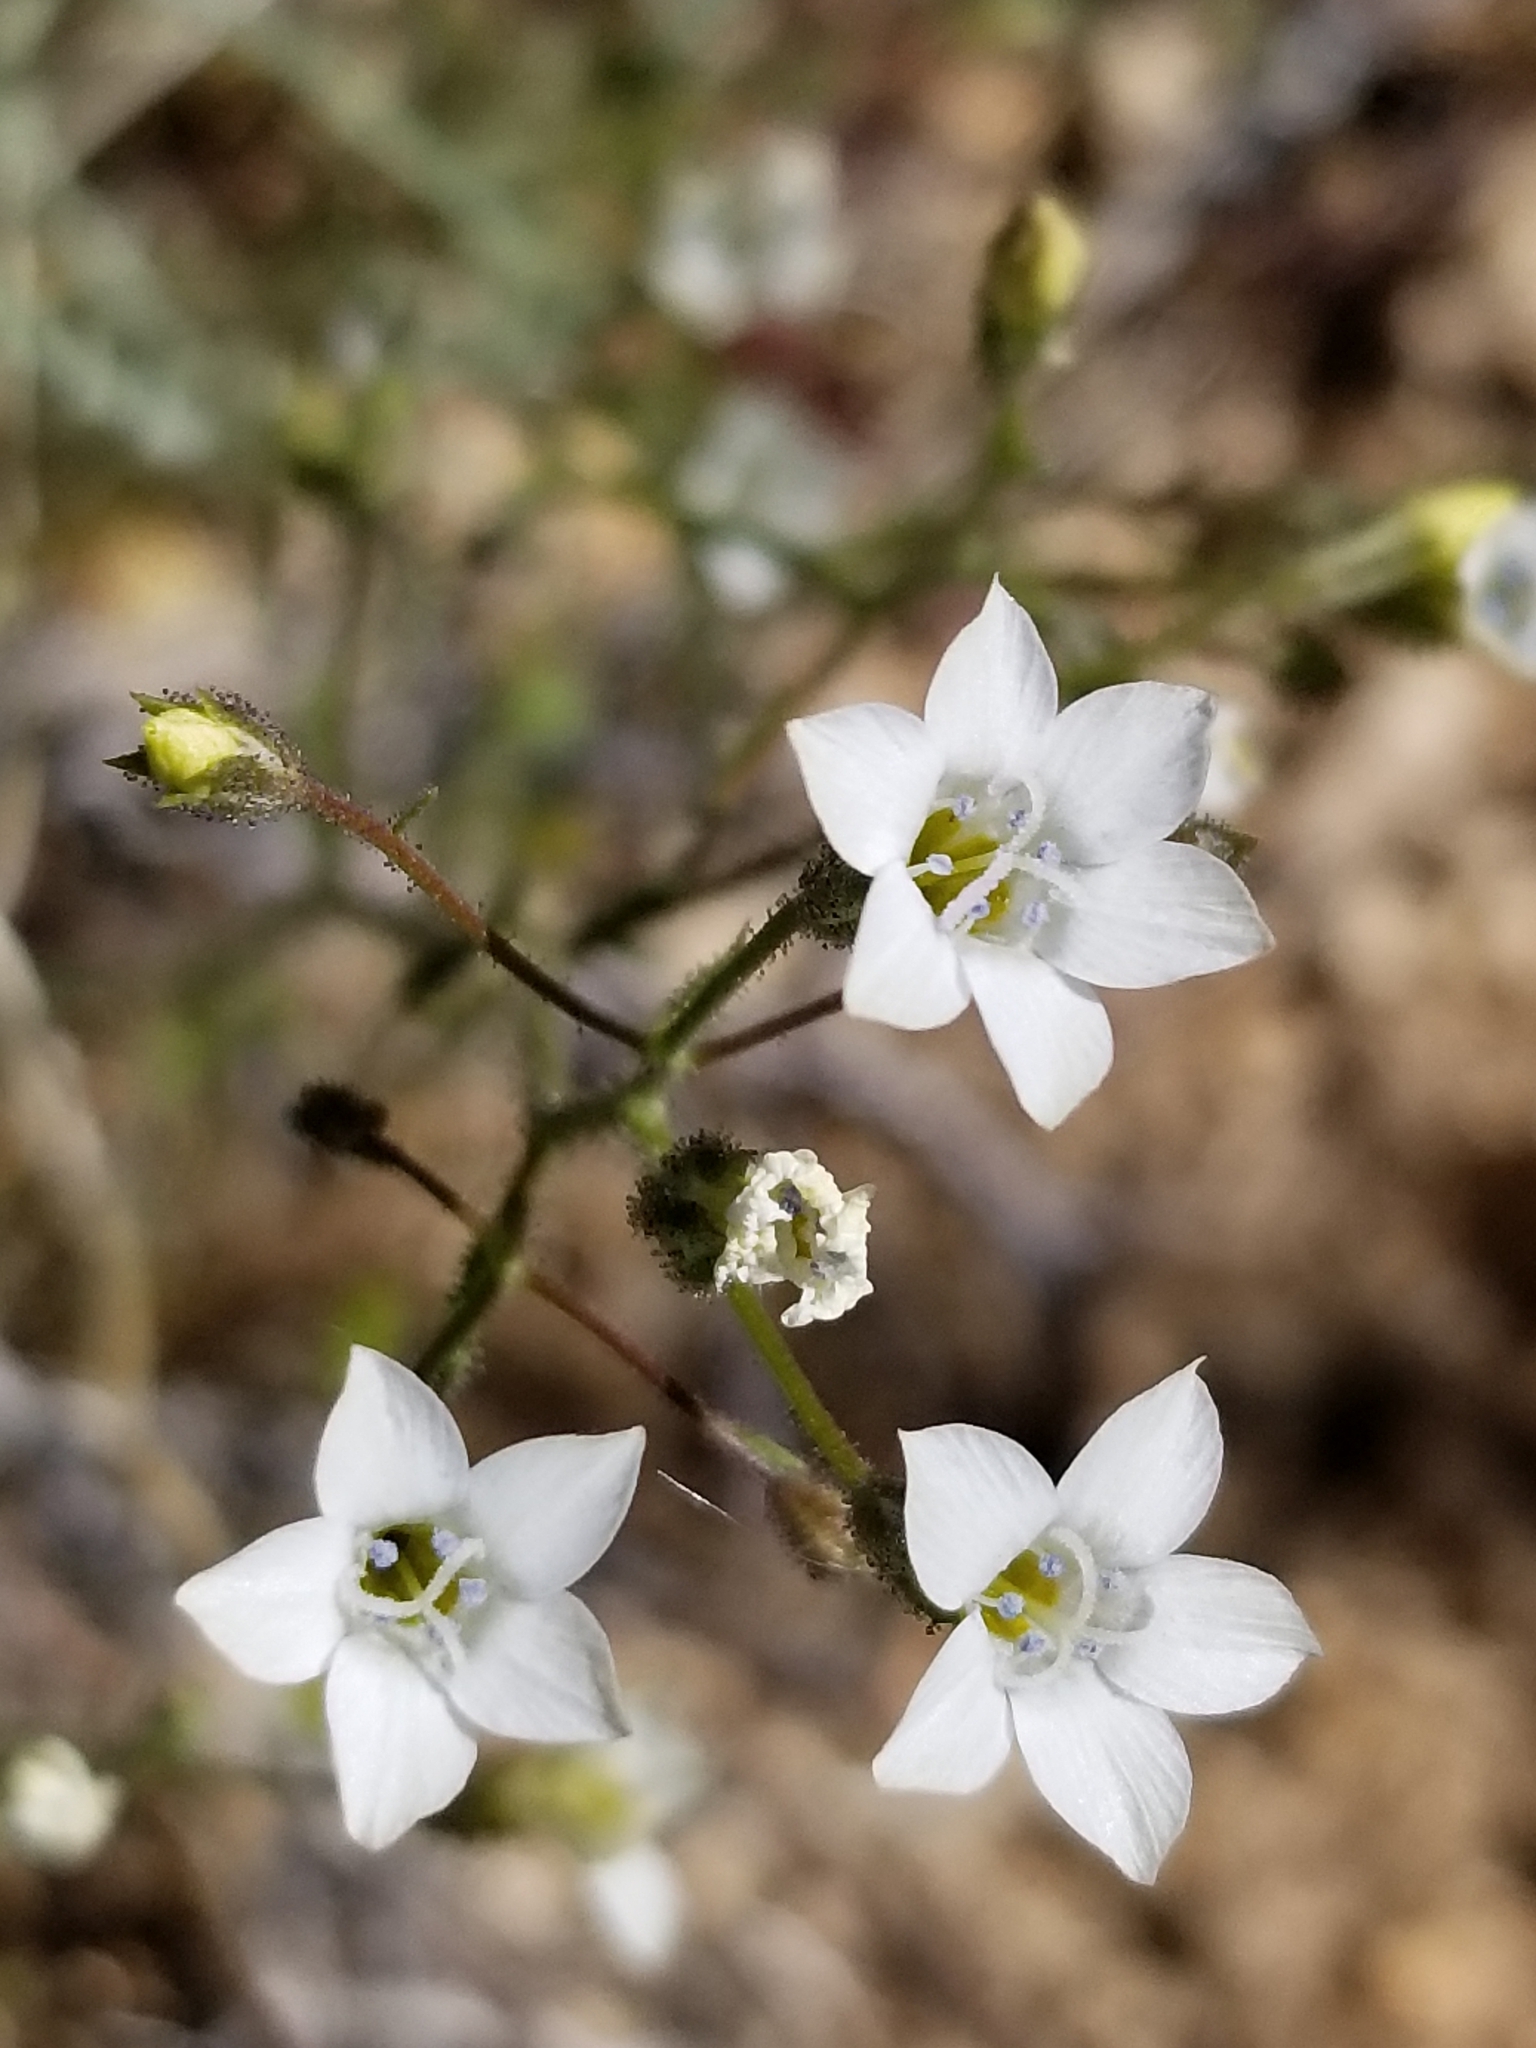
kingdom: Plantae
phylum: Tracheophyta
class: Magnoliopsida
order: Ericales
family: Polemoniaceae
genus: Gilia
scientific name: Gilia stellata
